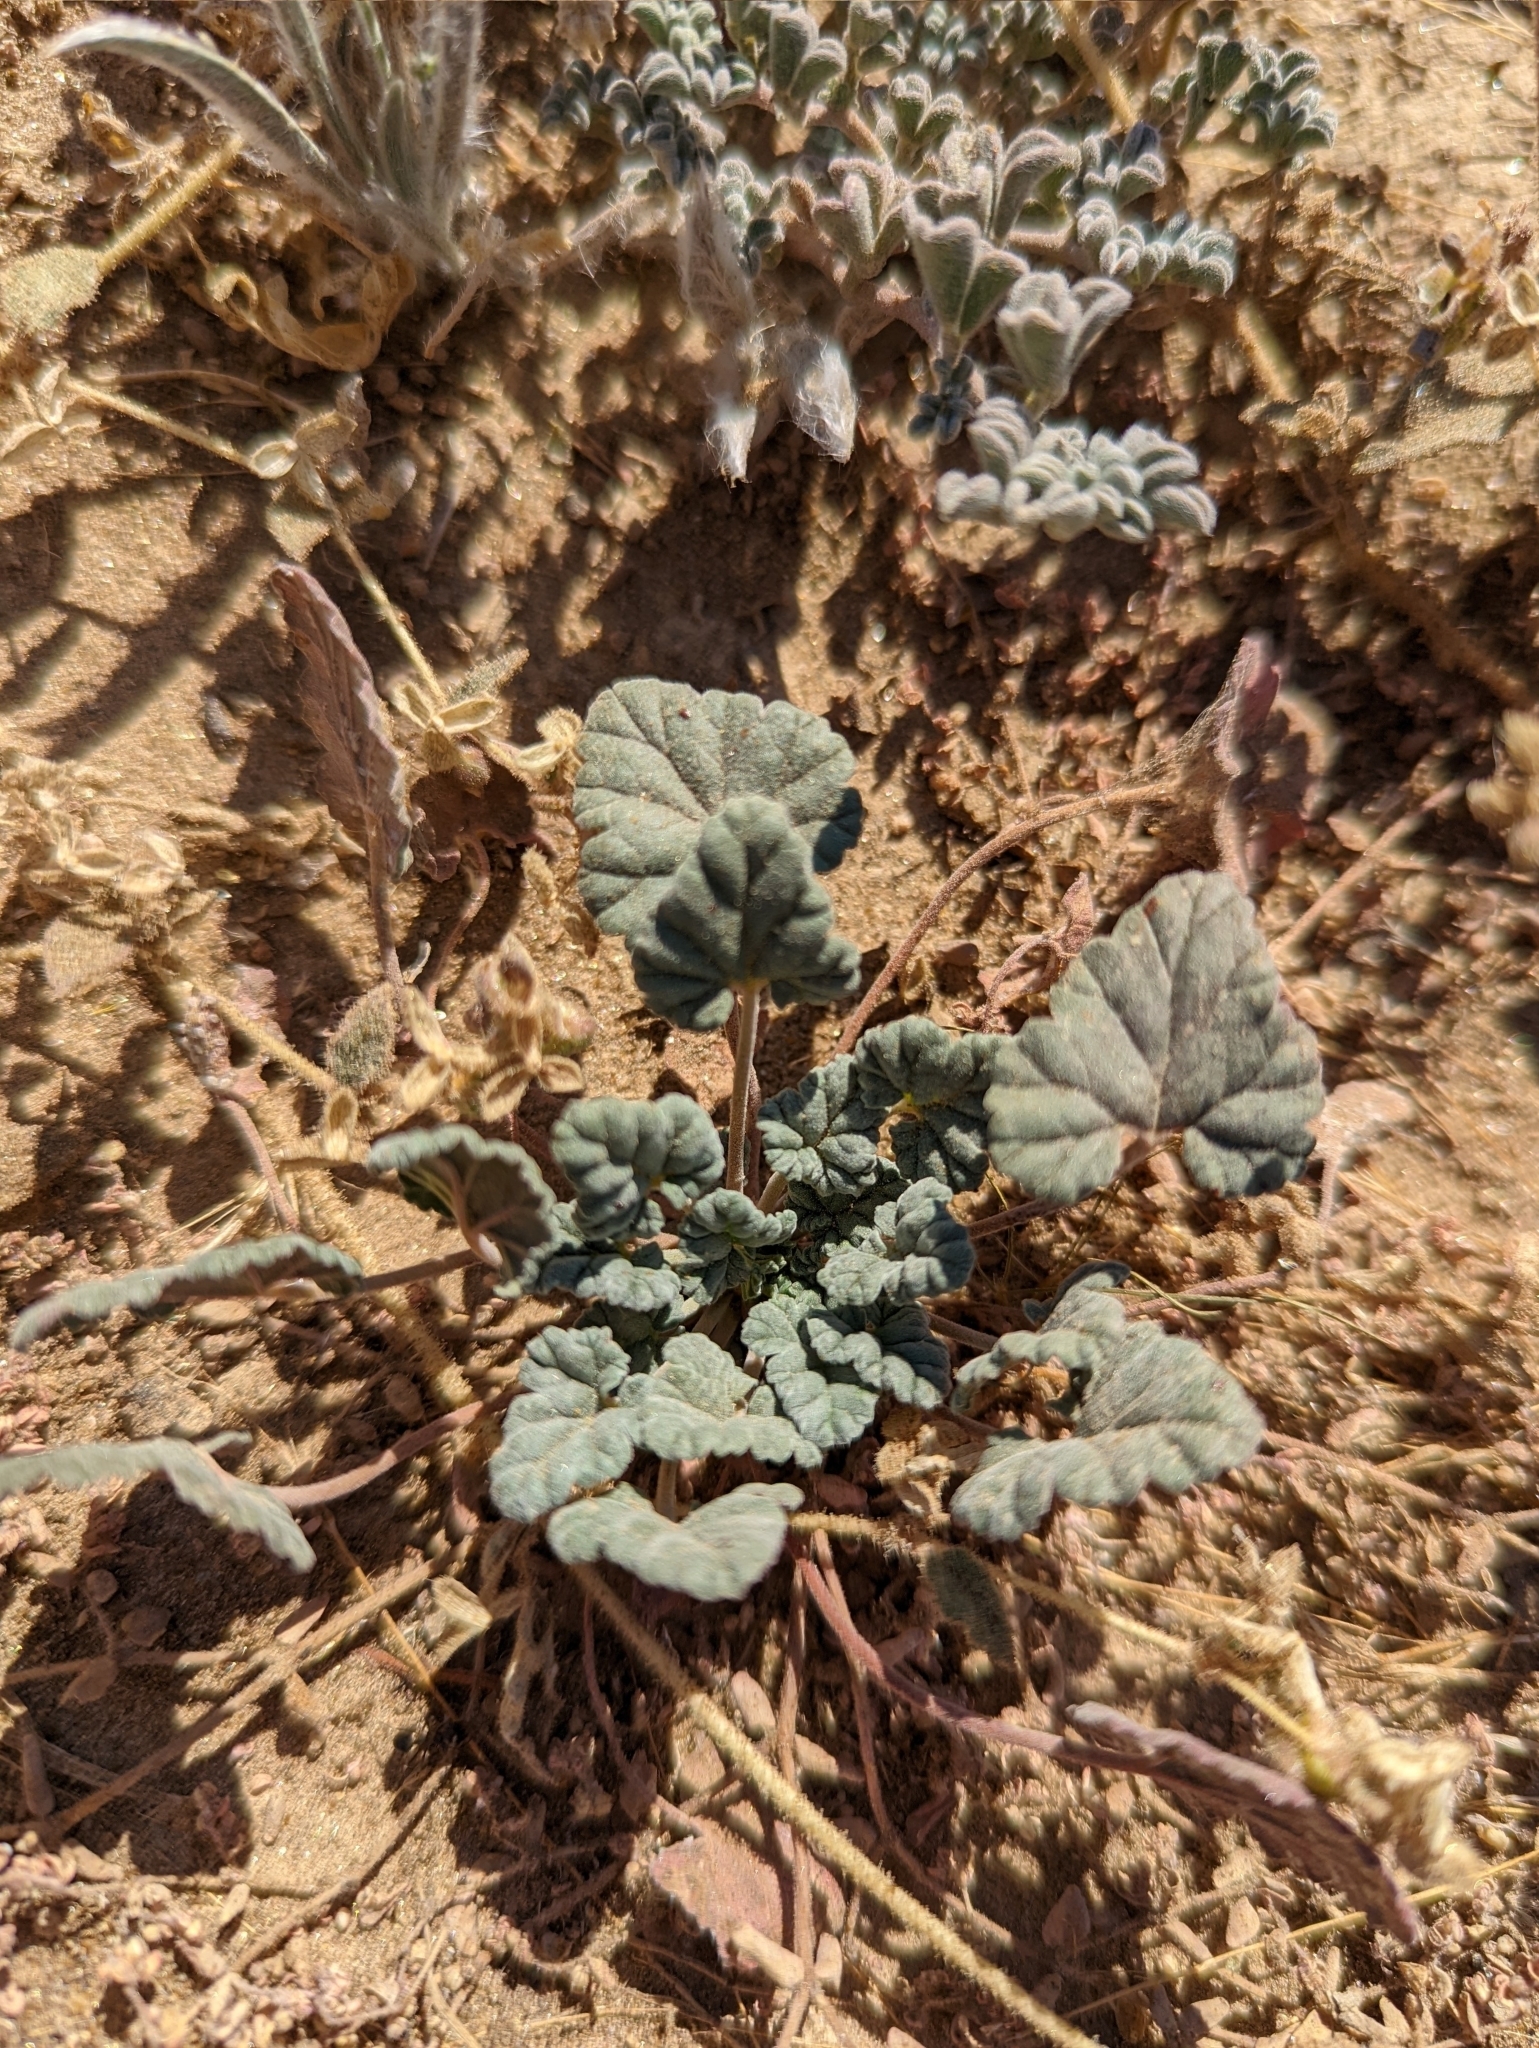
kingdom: Plantae
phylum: Tracheophyta
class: Magnoliopsida
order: Geraniales
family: Geraniaceae
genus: Erodium
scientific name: Erodium texanum
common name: Texas stork's-bill
